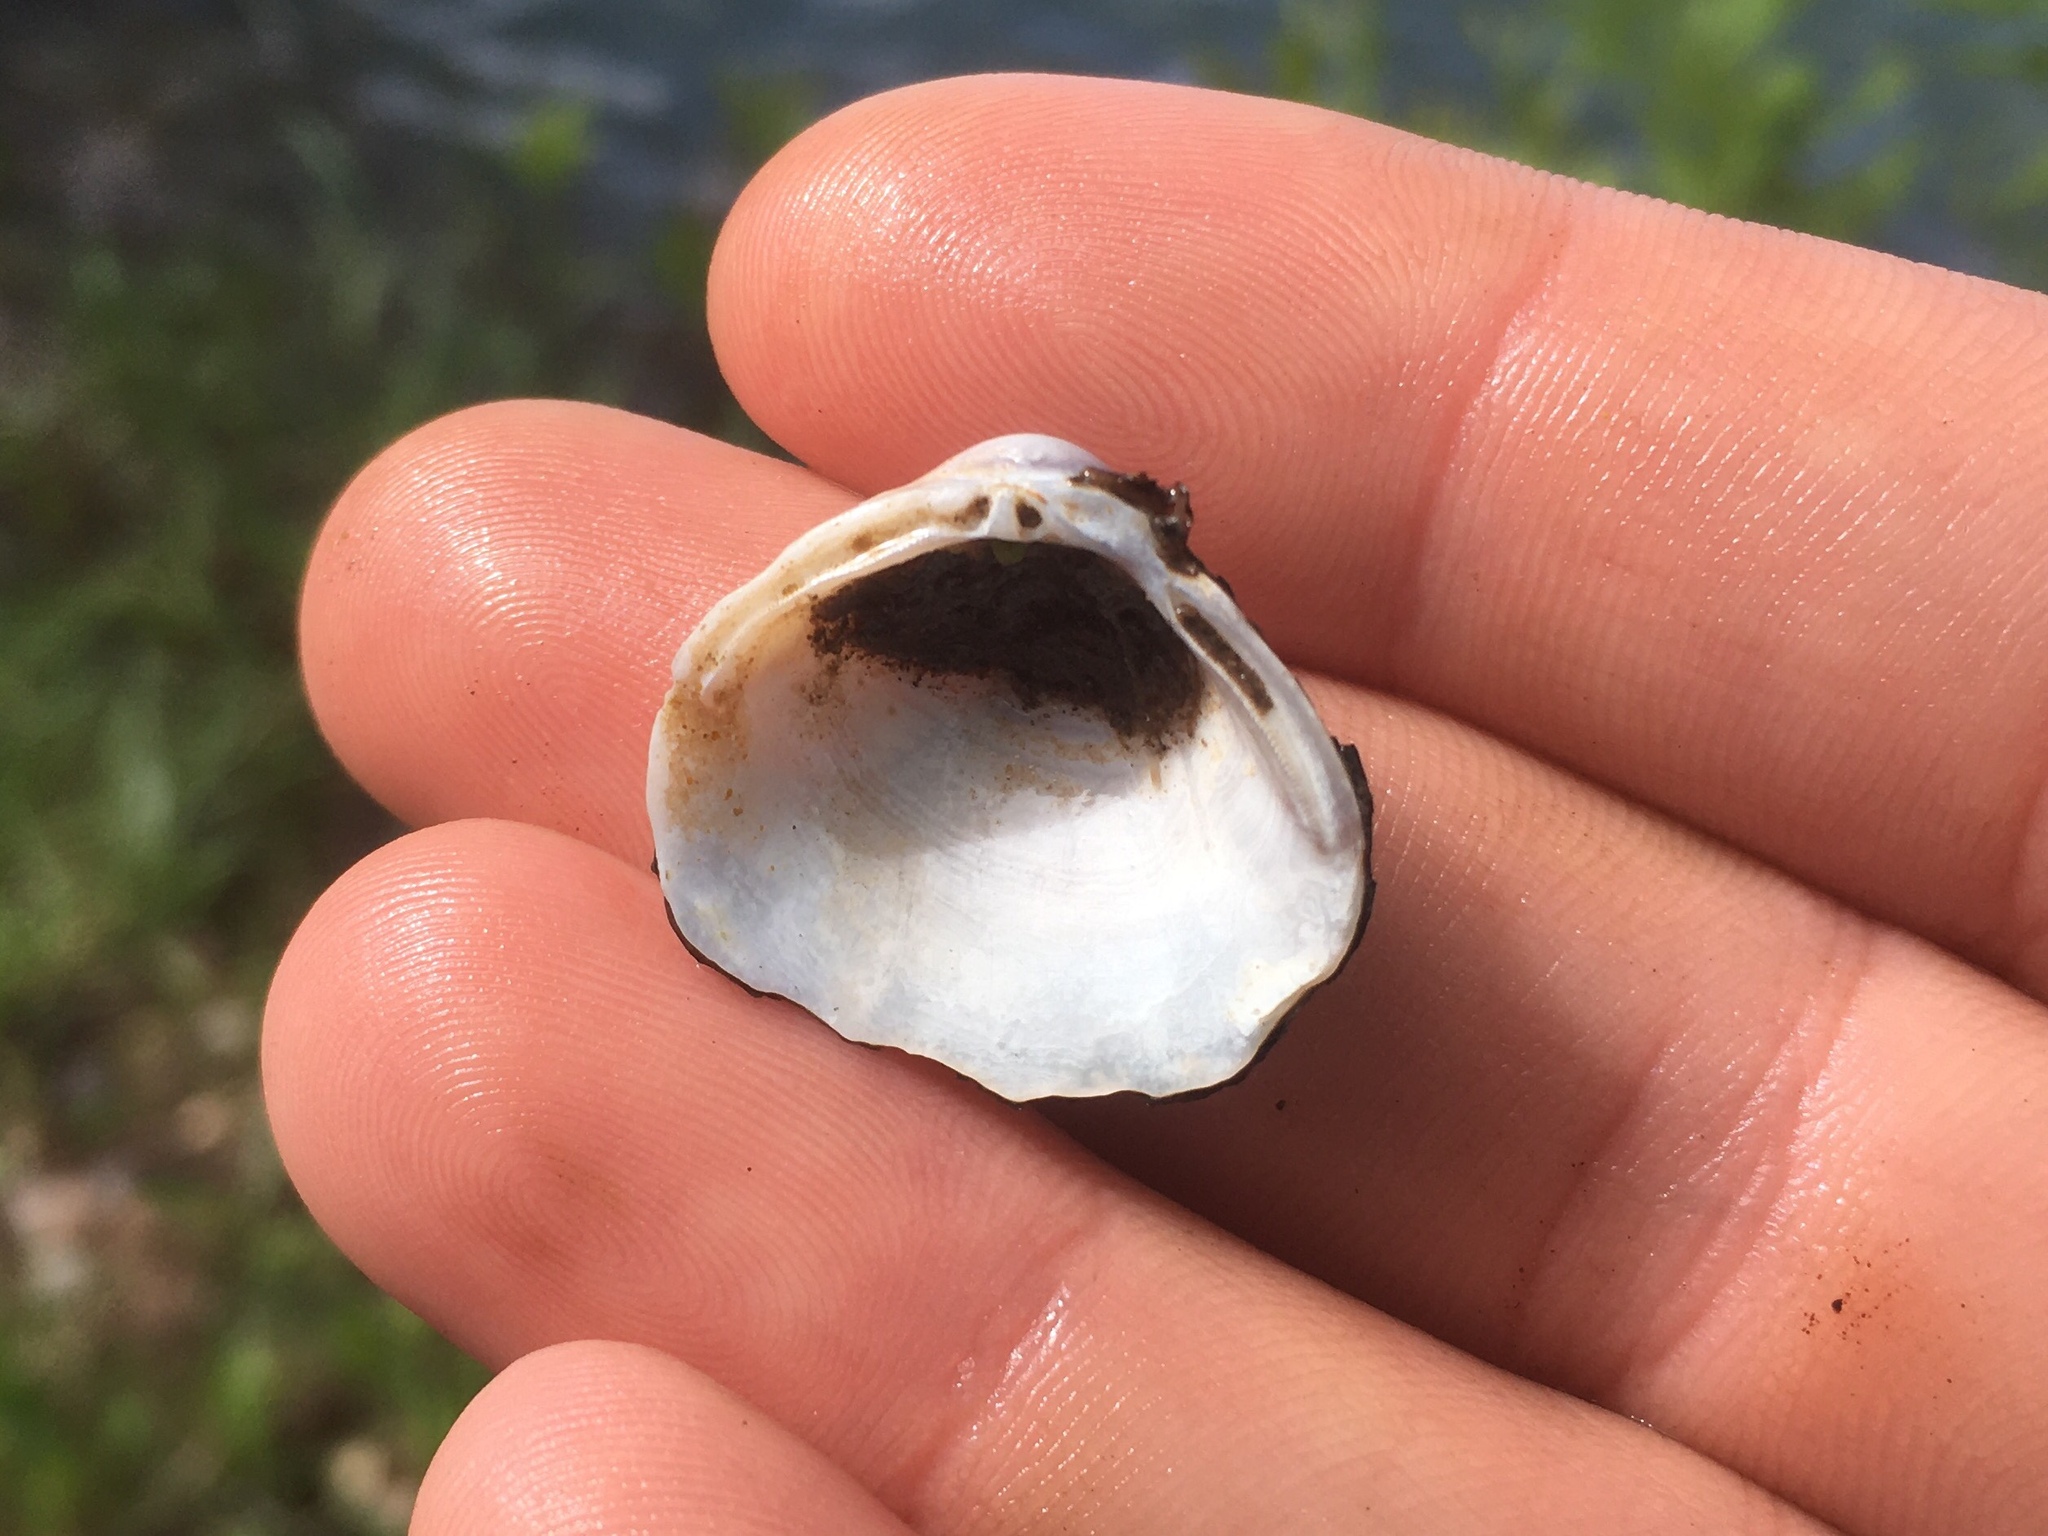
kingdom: Animalia
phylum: Mollusca
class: Bivalvia
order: Venerida
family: Cyrenidae
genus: Corbicula
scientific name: Corbicula fluminea
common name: Asian clam
